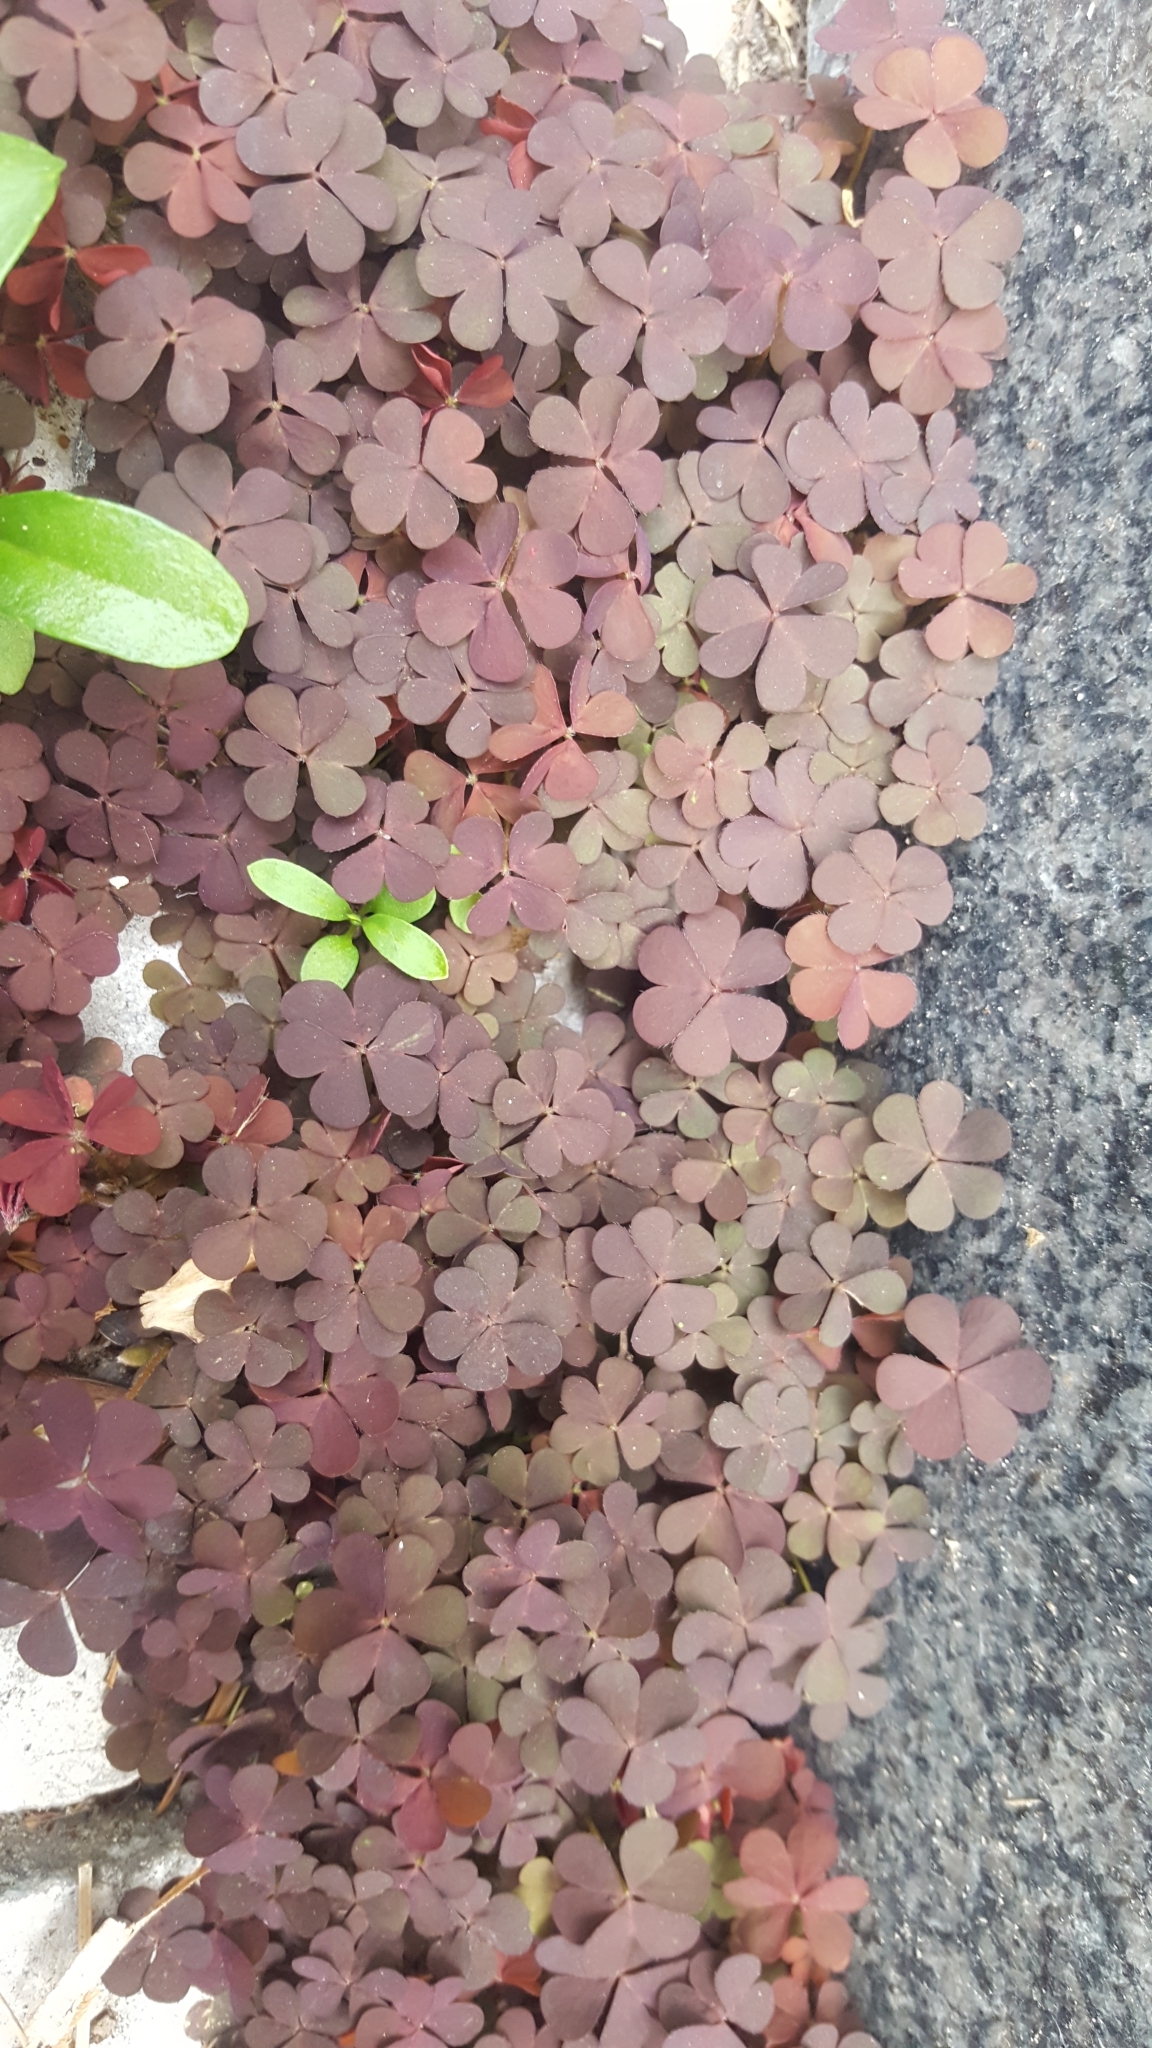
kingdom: Plantae
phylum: Tracheophyta
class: Magnoliopsida
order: Oxalidales
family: Oxalidaceae
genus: Oxalis
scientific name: Oxalis corniculata
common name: Procumbent yellow-sorrel
